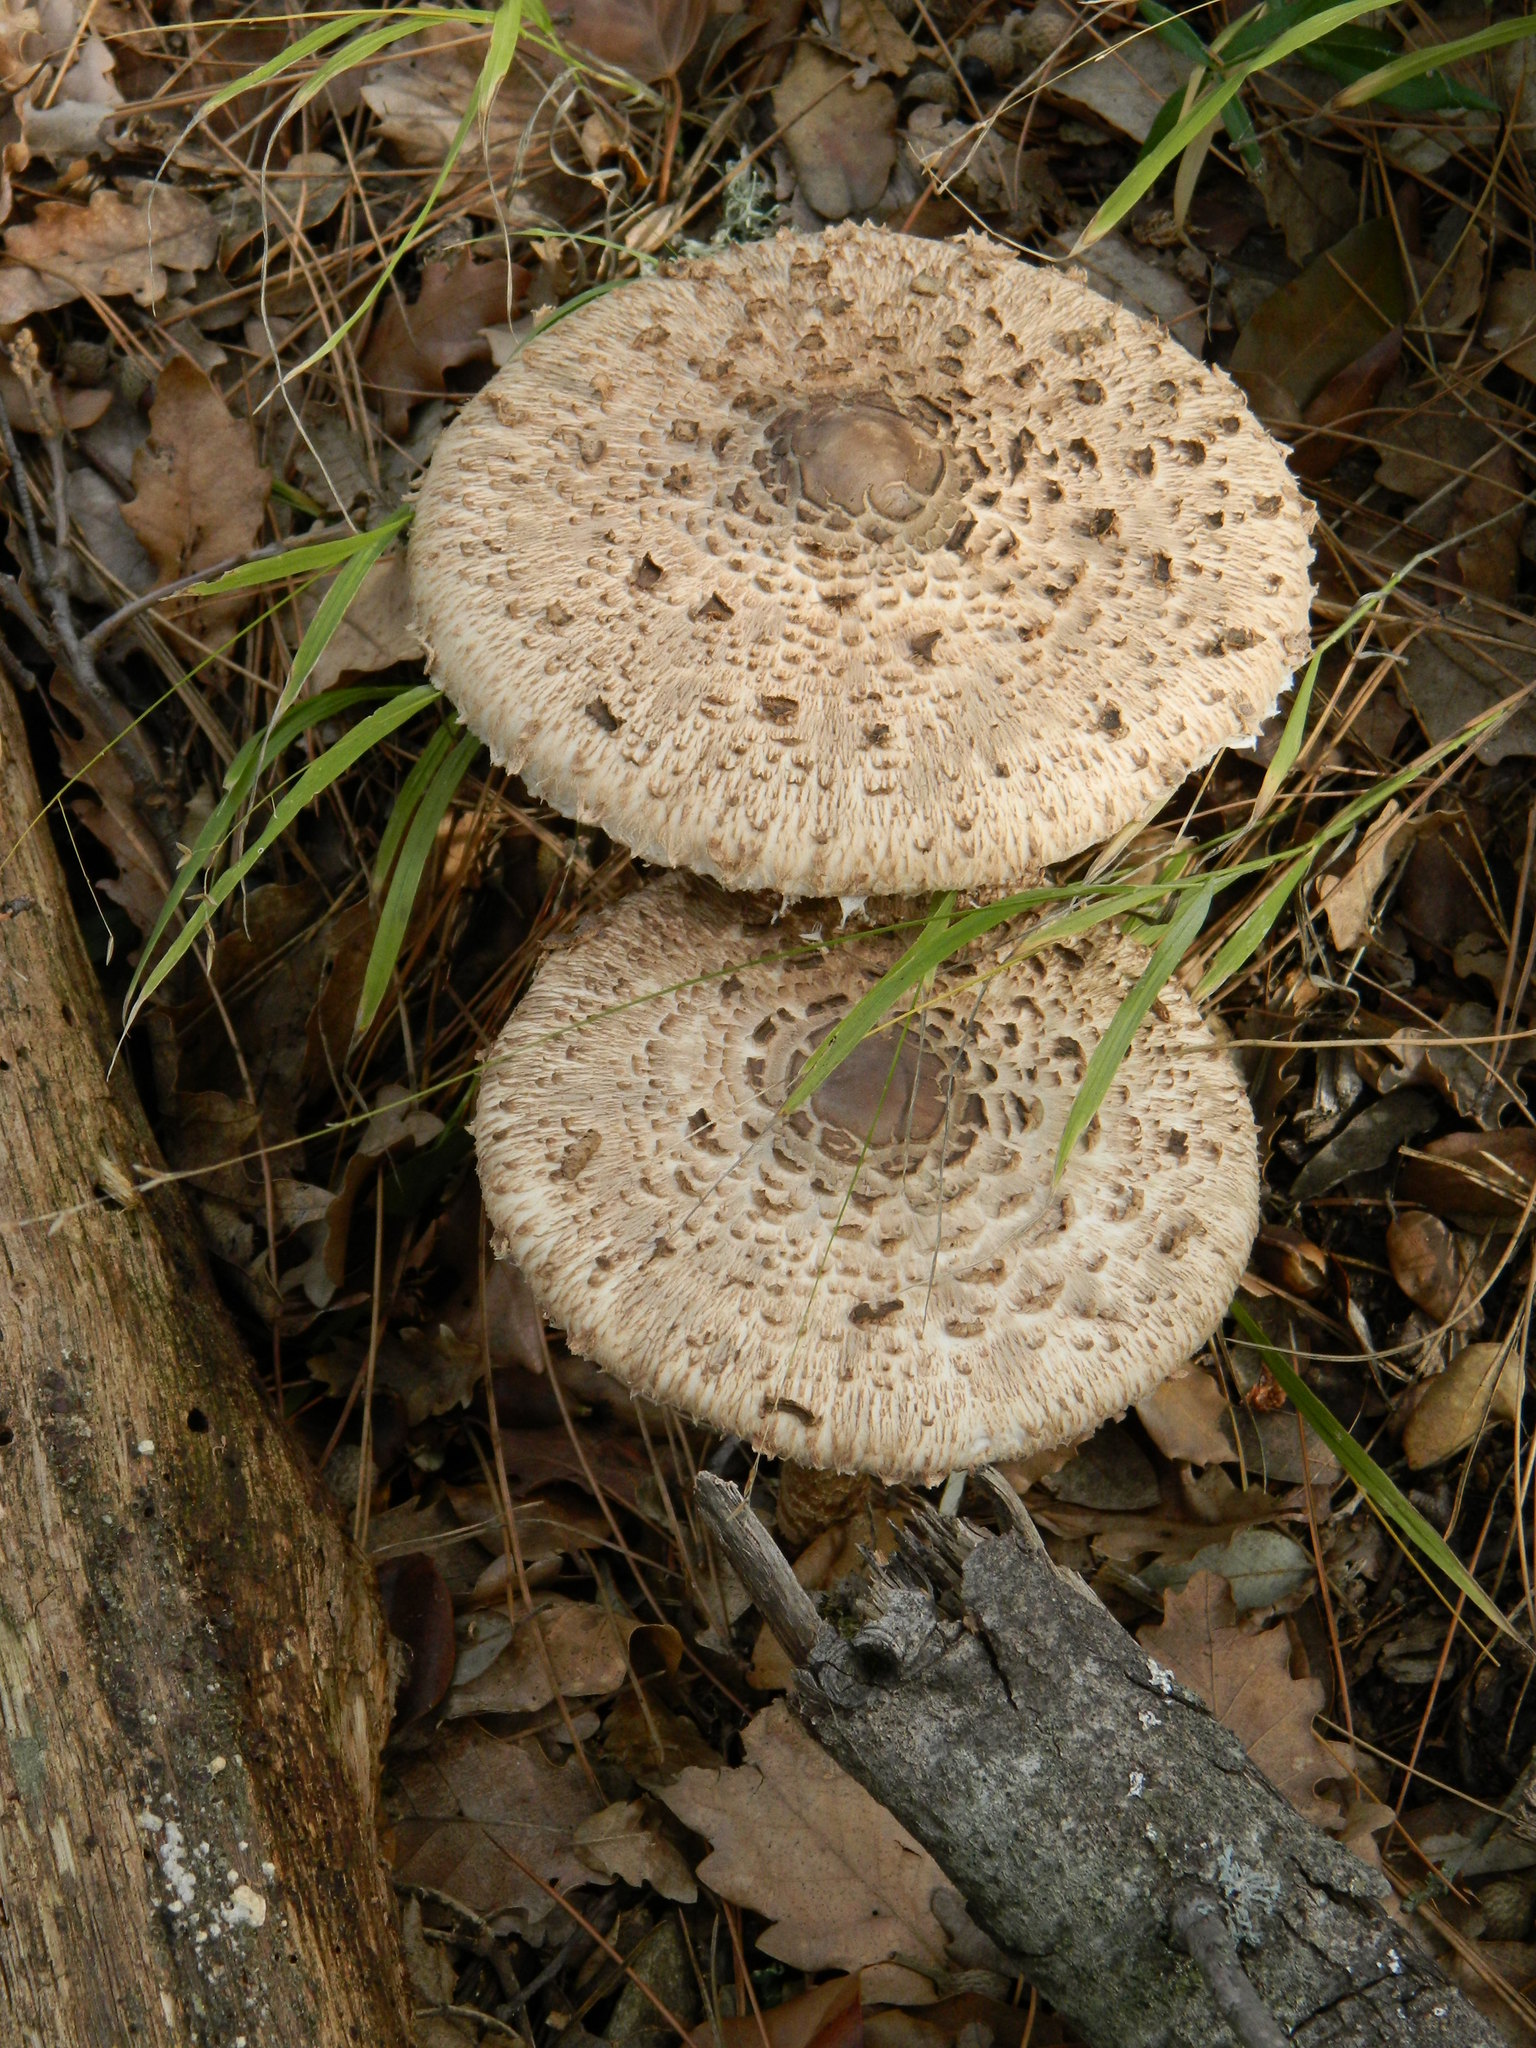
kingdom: Fungi
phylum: Basidiomycota
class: Agaricomycetes
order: Agaricales
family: Agaricaceae
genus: Macrolepiota
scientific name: Macrolepiota procera
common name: Parasol
